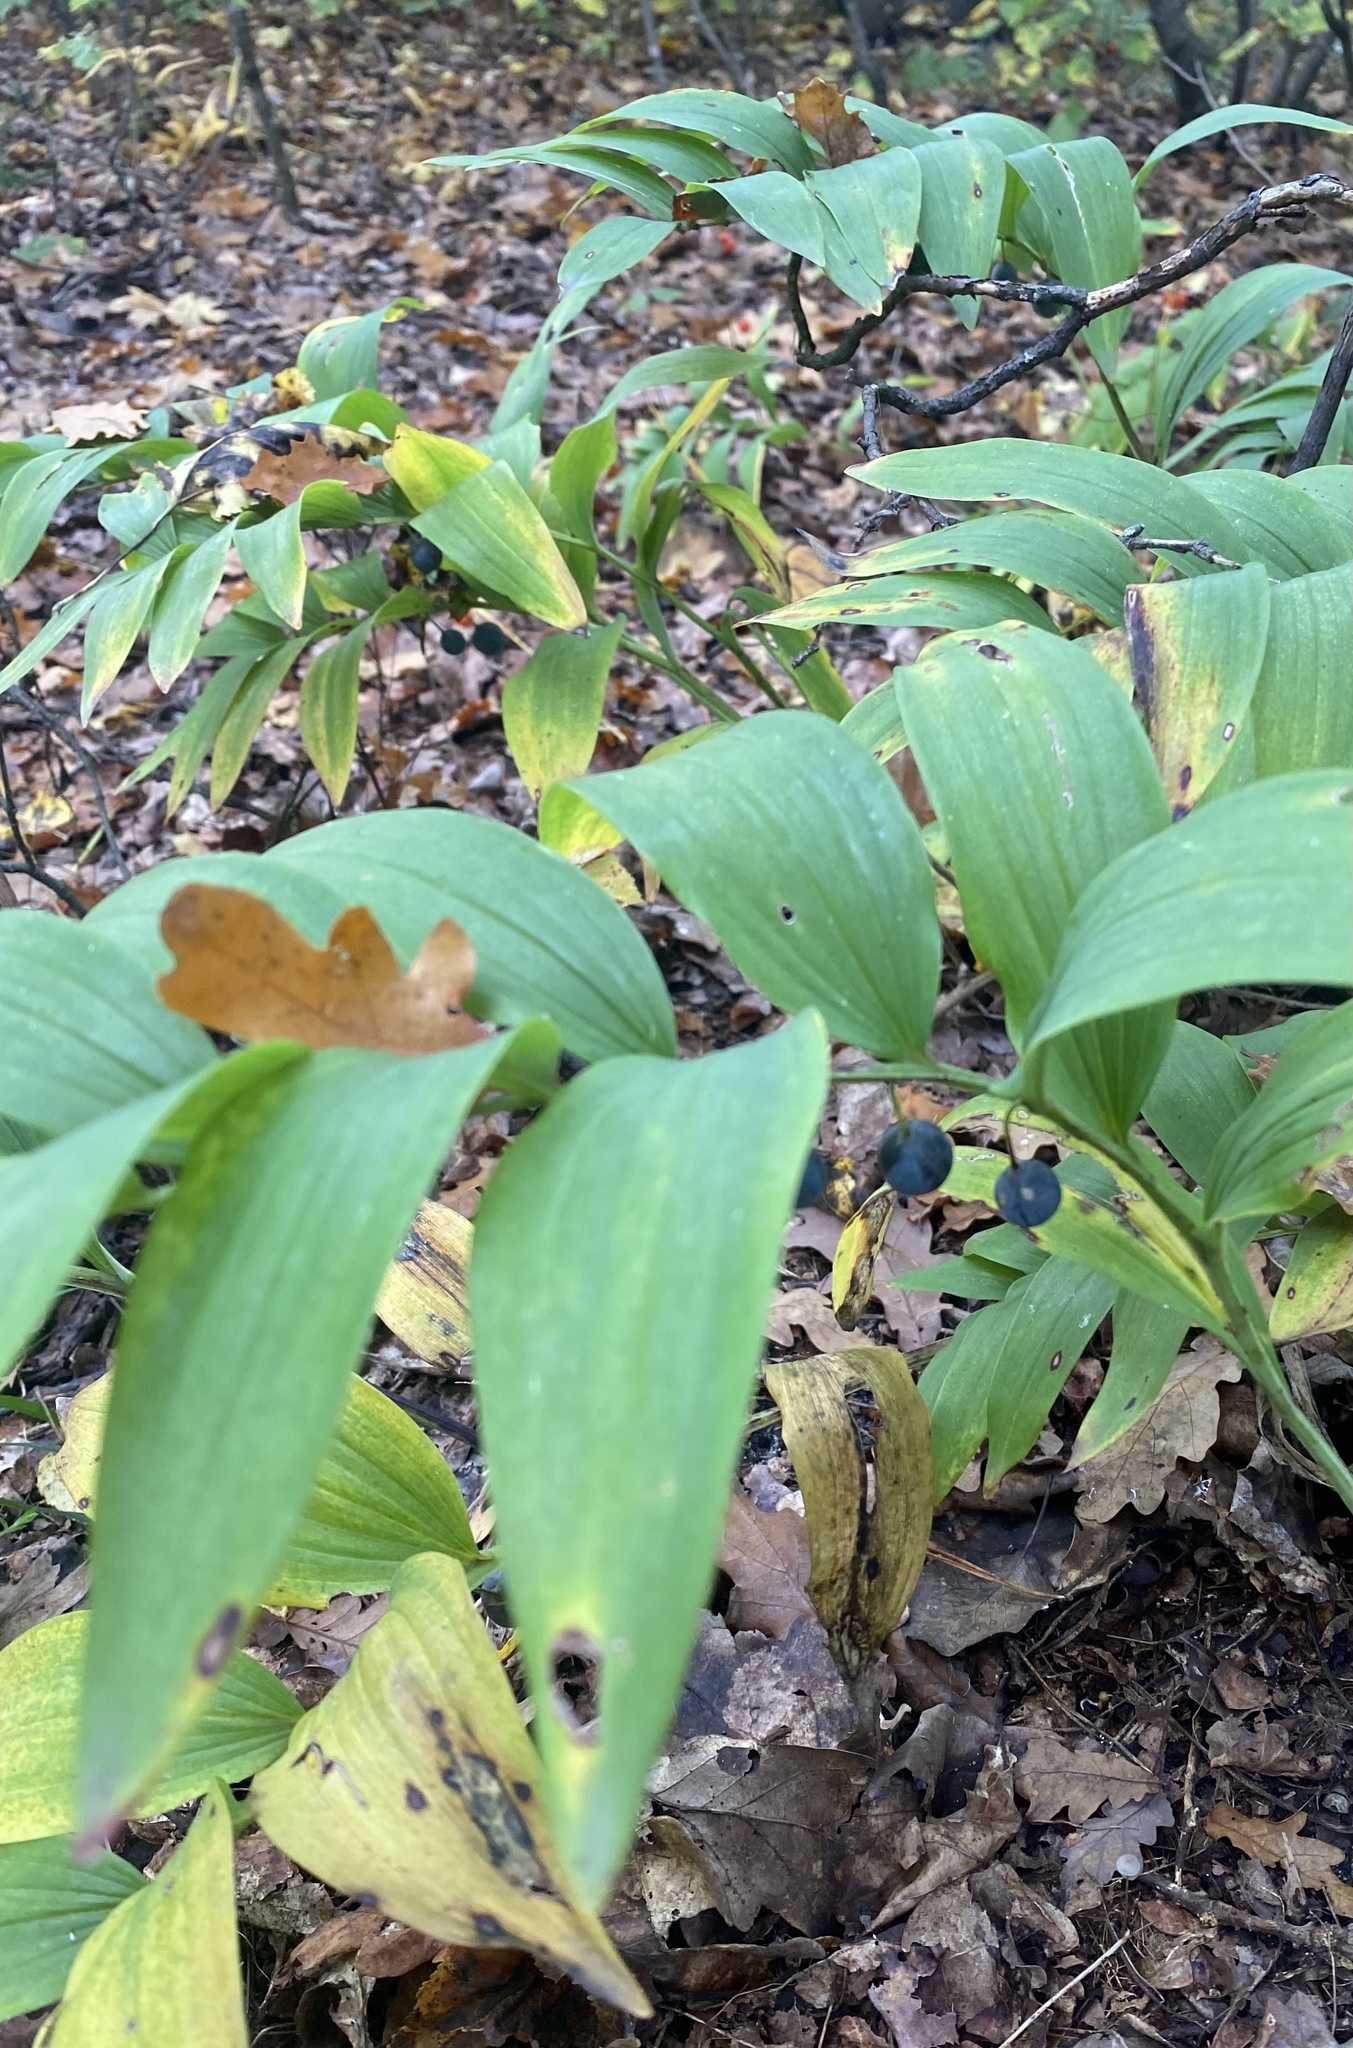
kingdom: Plantae
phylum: Tracheophyta
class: Liliopsida
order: Asparagales
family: Asparagaceae
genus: Polygonatum
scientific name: Polygonatum multiflorum
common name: Solomon's-seal
